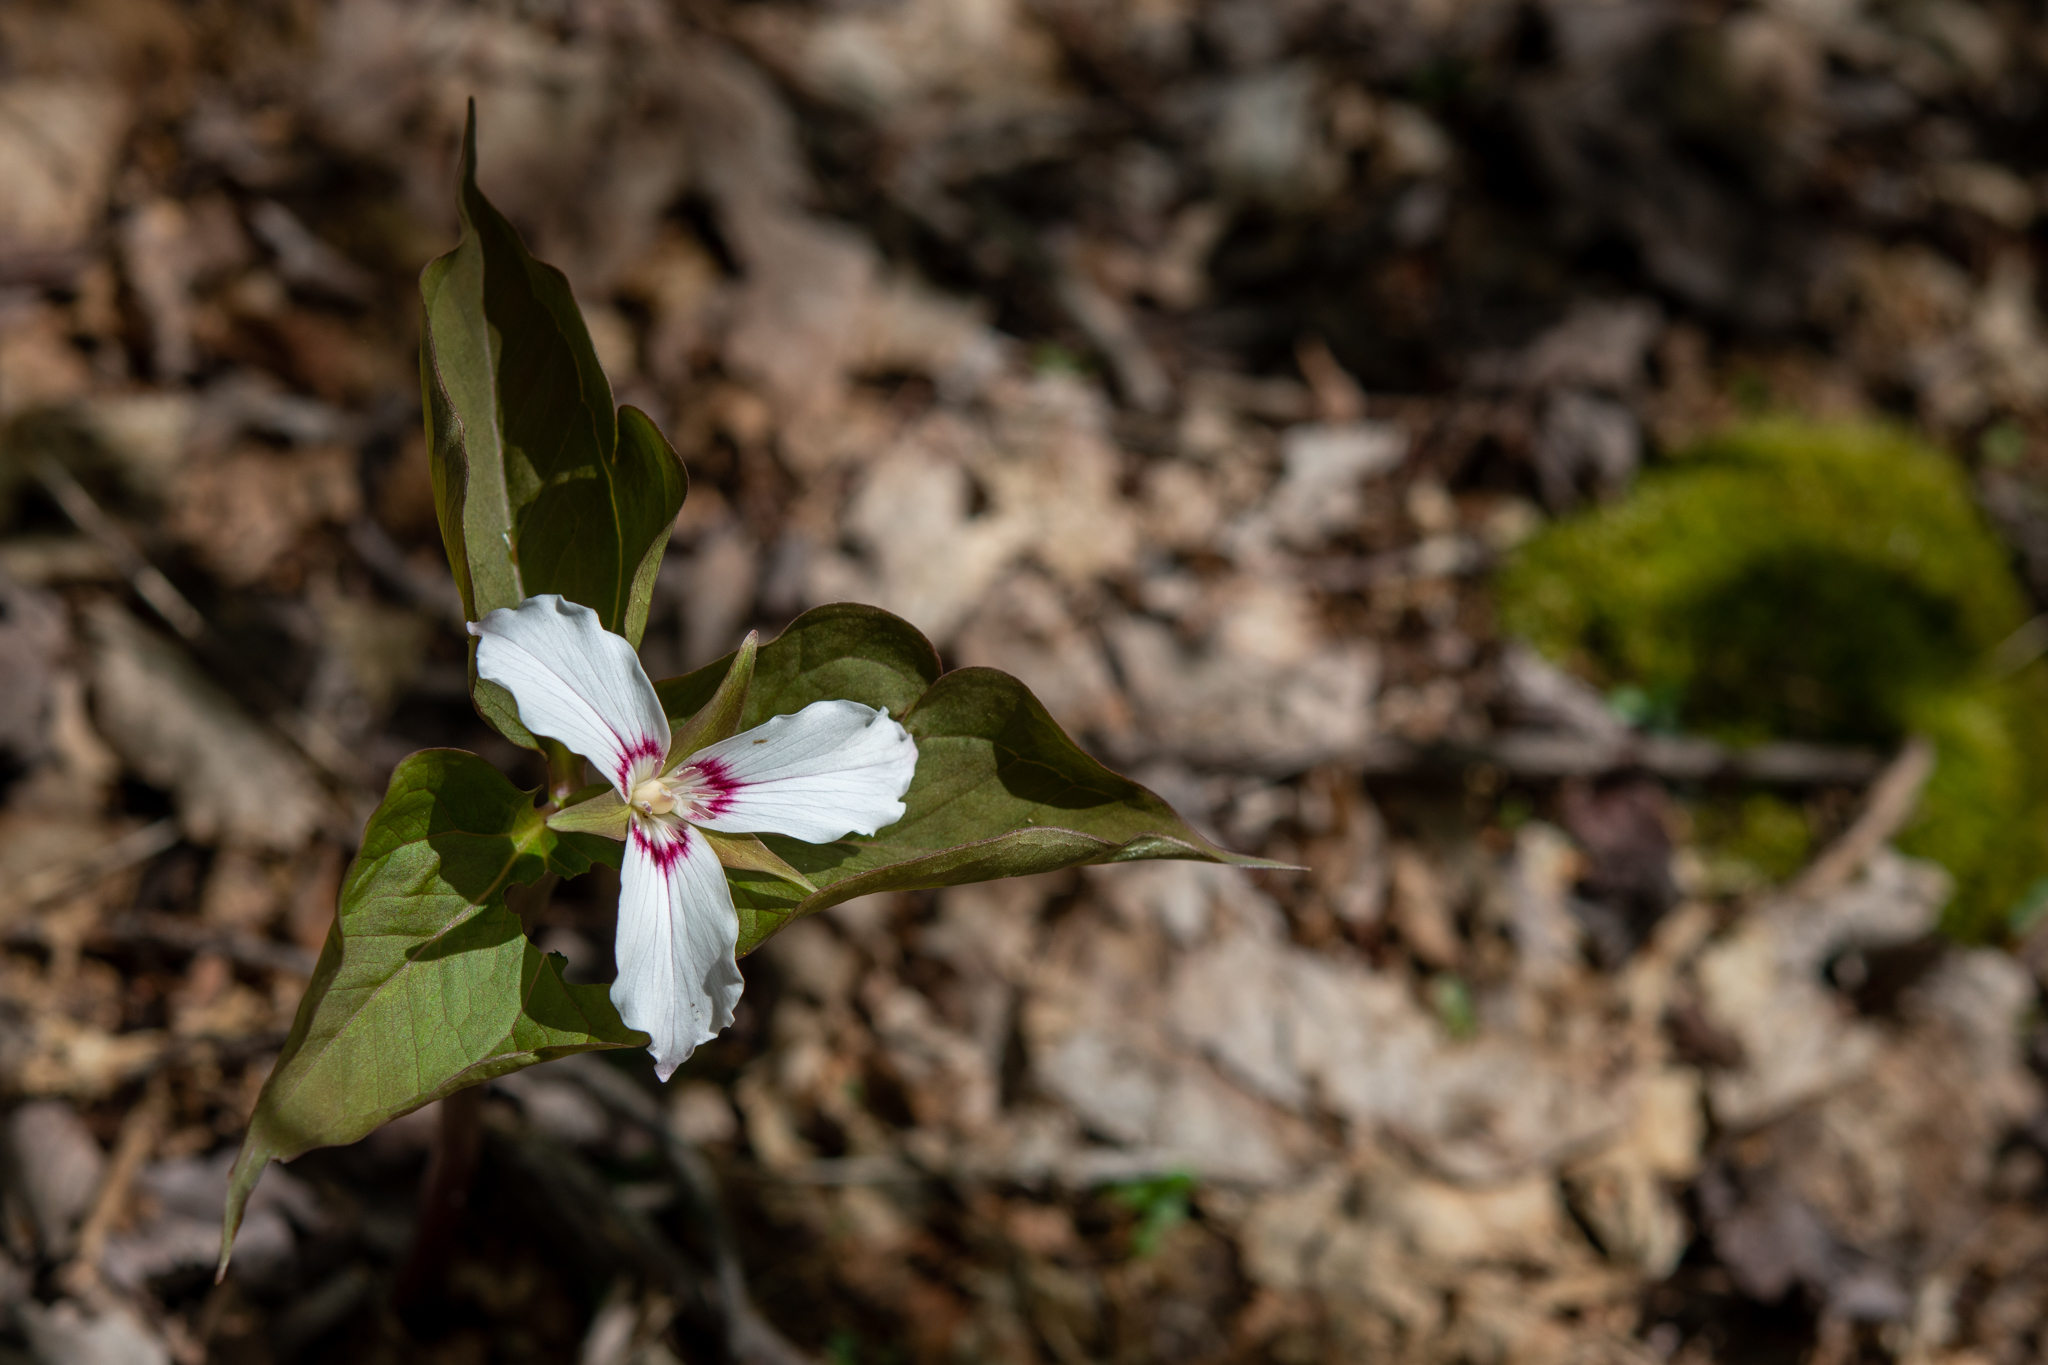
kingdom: Plantae
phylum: Tracheophyta
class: Liliopsida
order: Liliales
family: Melanthiaceae
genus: Trillium
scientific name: Trillium undulatum
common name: Paint trillium
